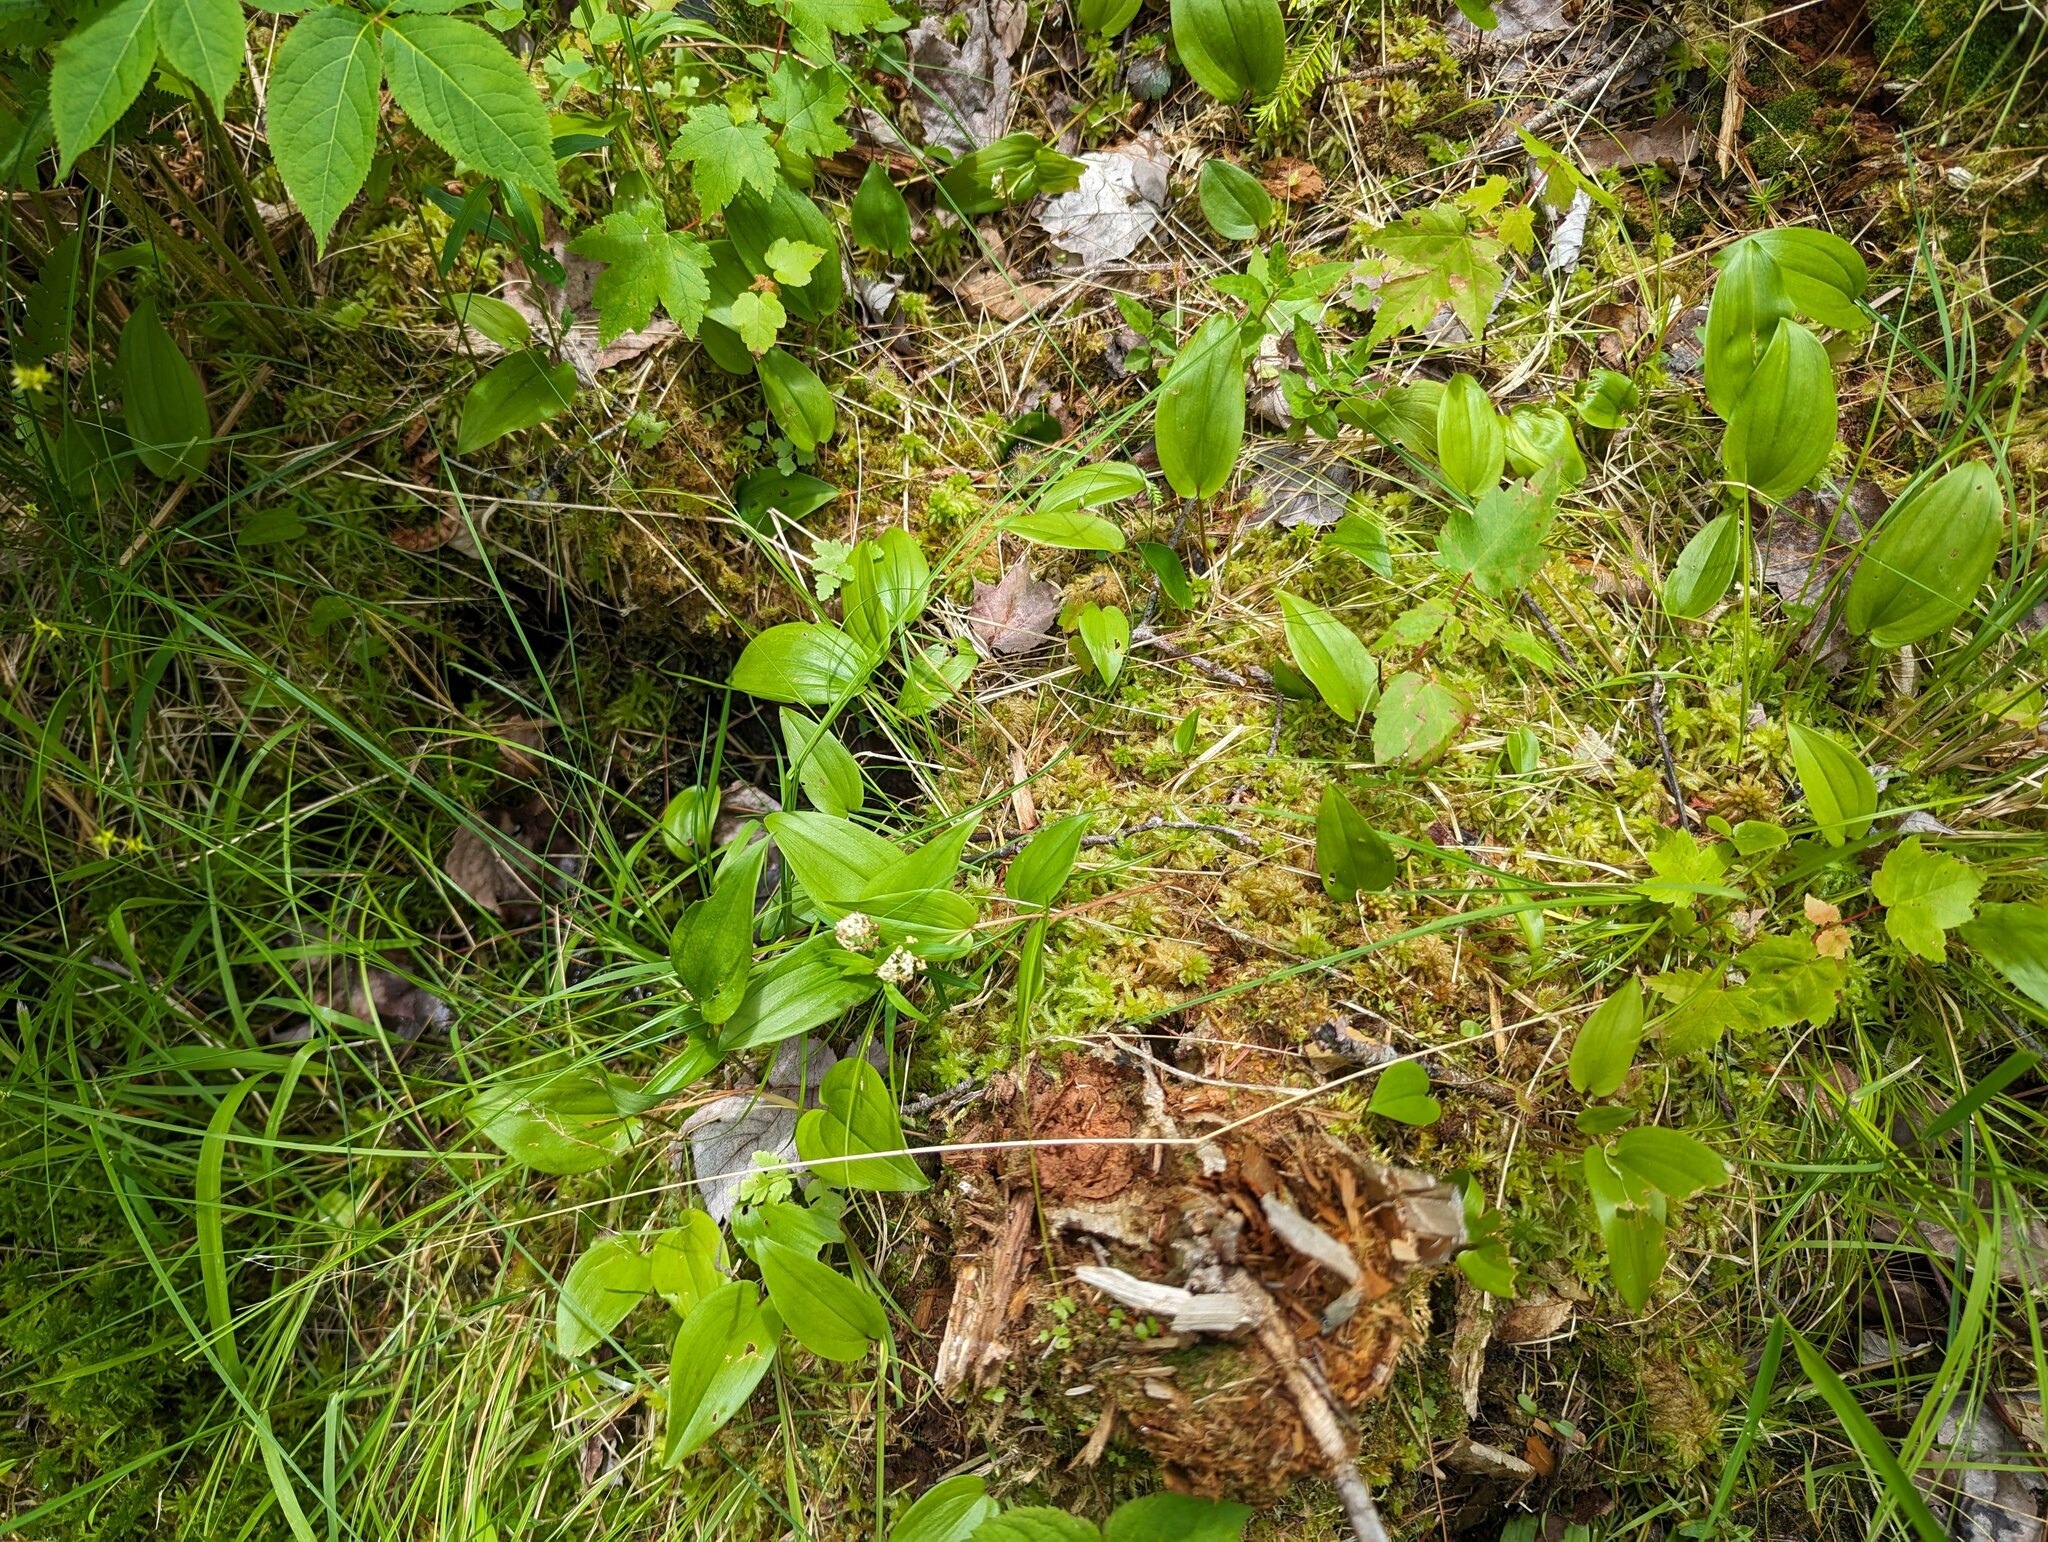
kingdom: Plantae
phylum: Tracheophyta
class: Liliopsida
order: Asparagales
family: Asparagaceae
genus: Maianthemum
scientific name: Maianthemum canadense
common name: False lily-of-the-valley
